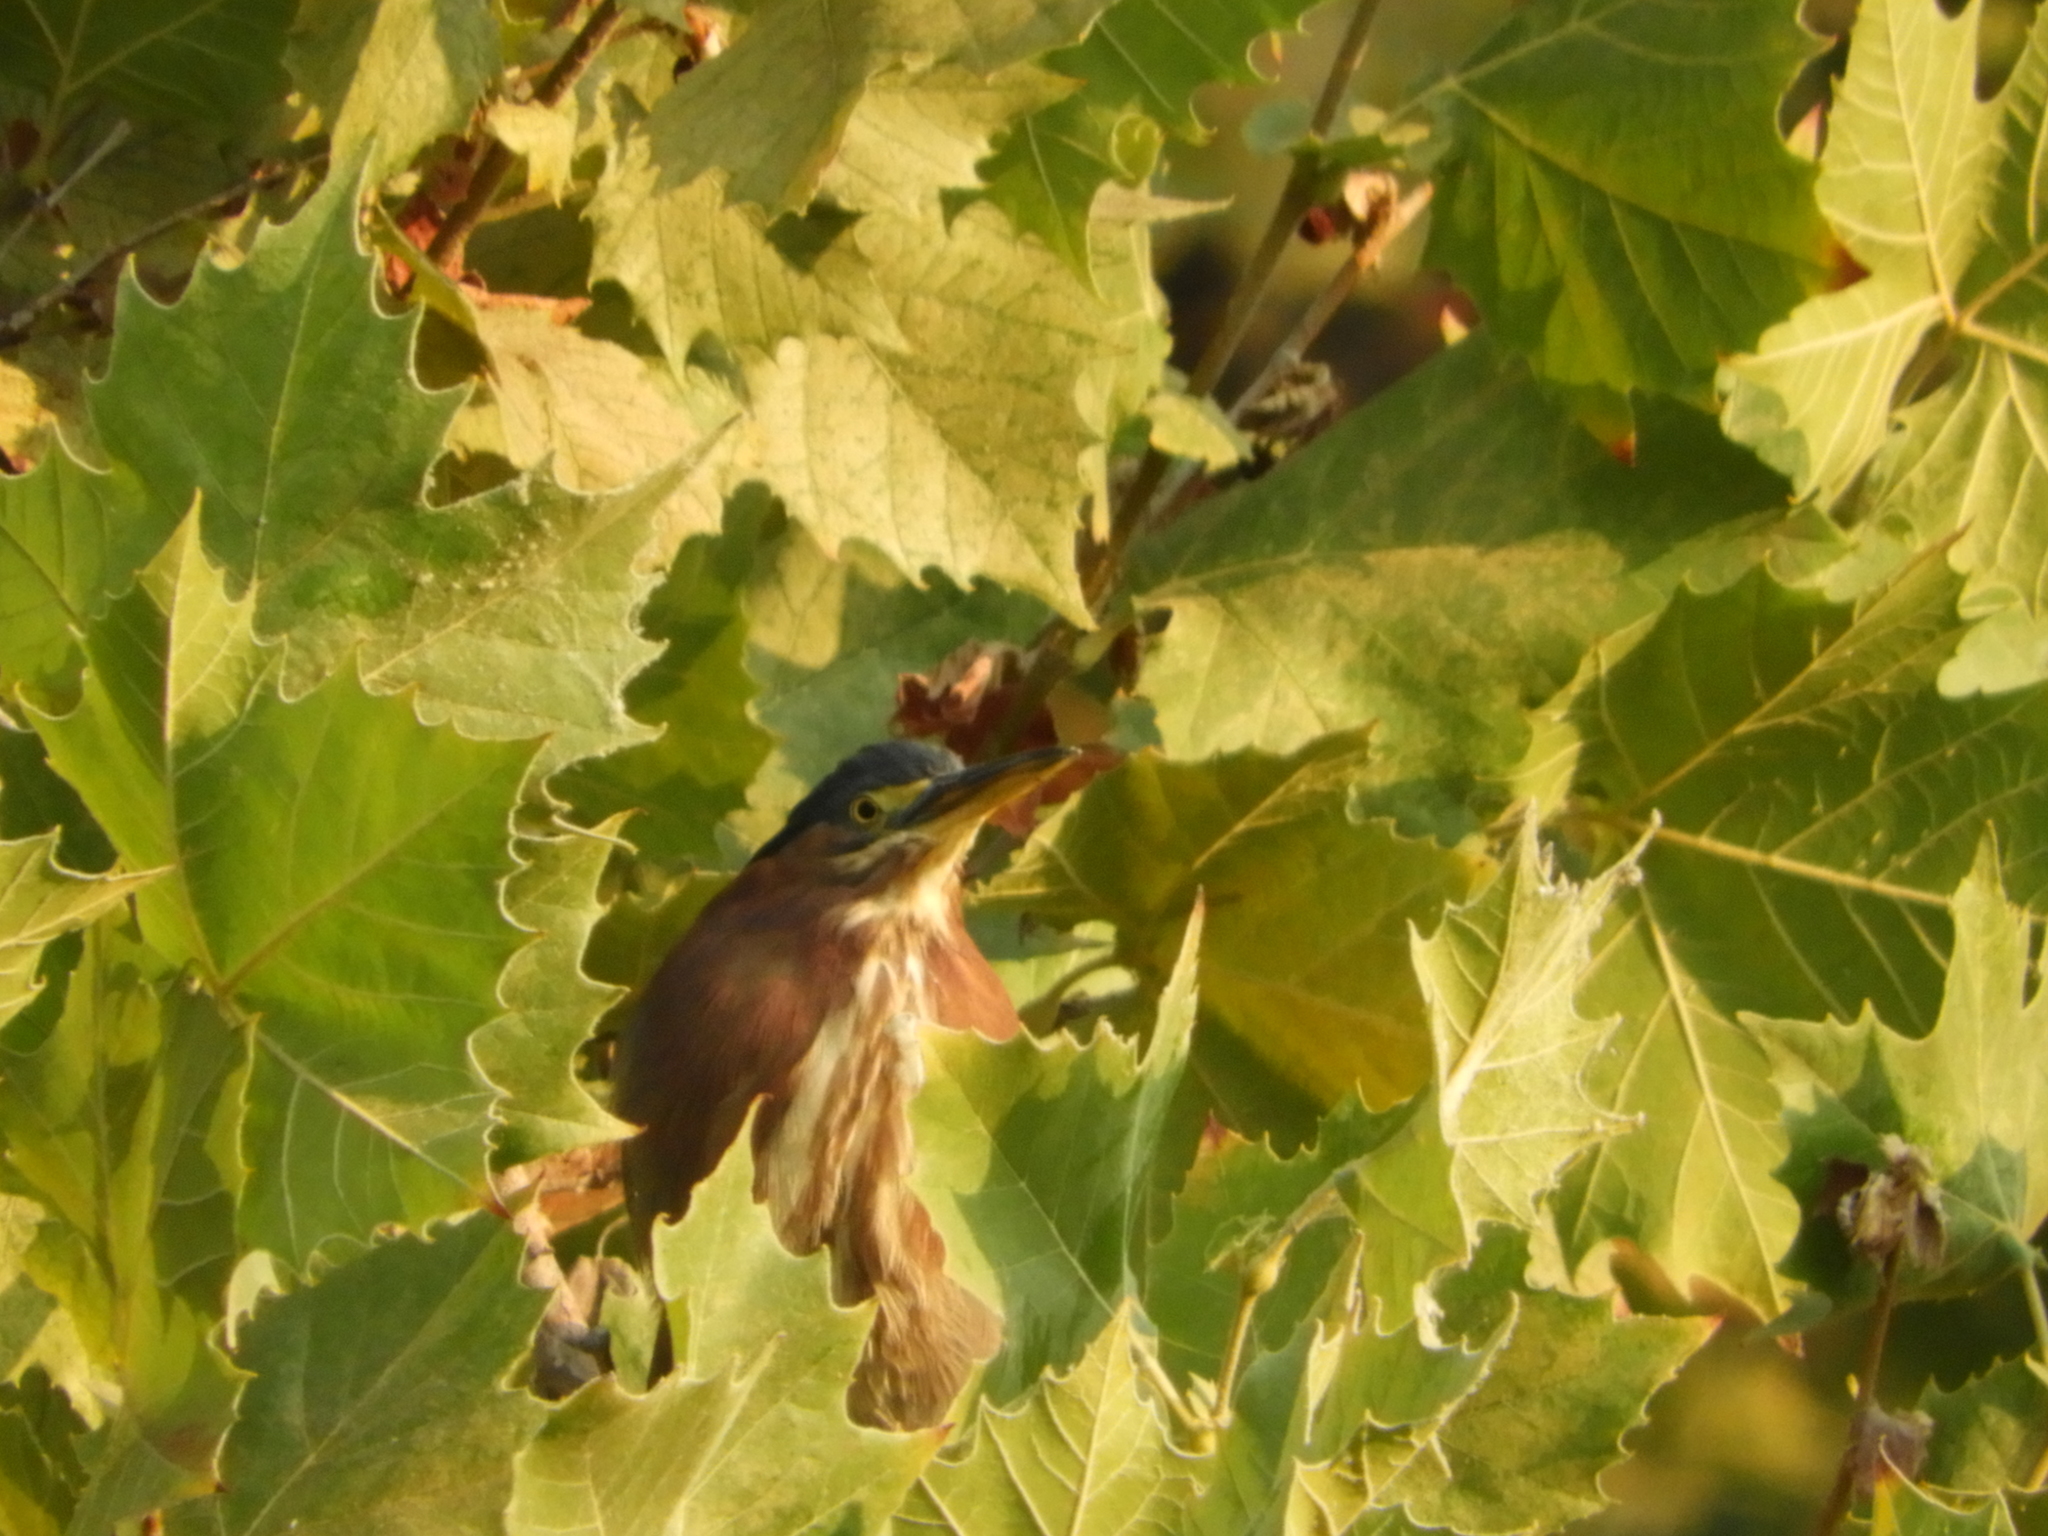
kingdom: Animalia
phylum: Chordata
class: Aves
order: Pelecaniformes
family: Ardeidae
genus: Butorides
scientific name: Butorides virescens
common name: Green heron
